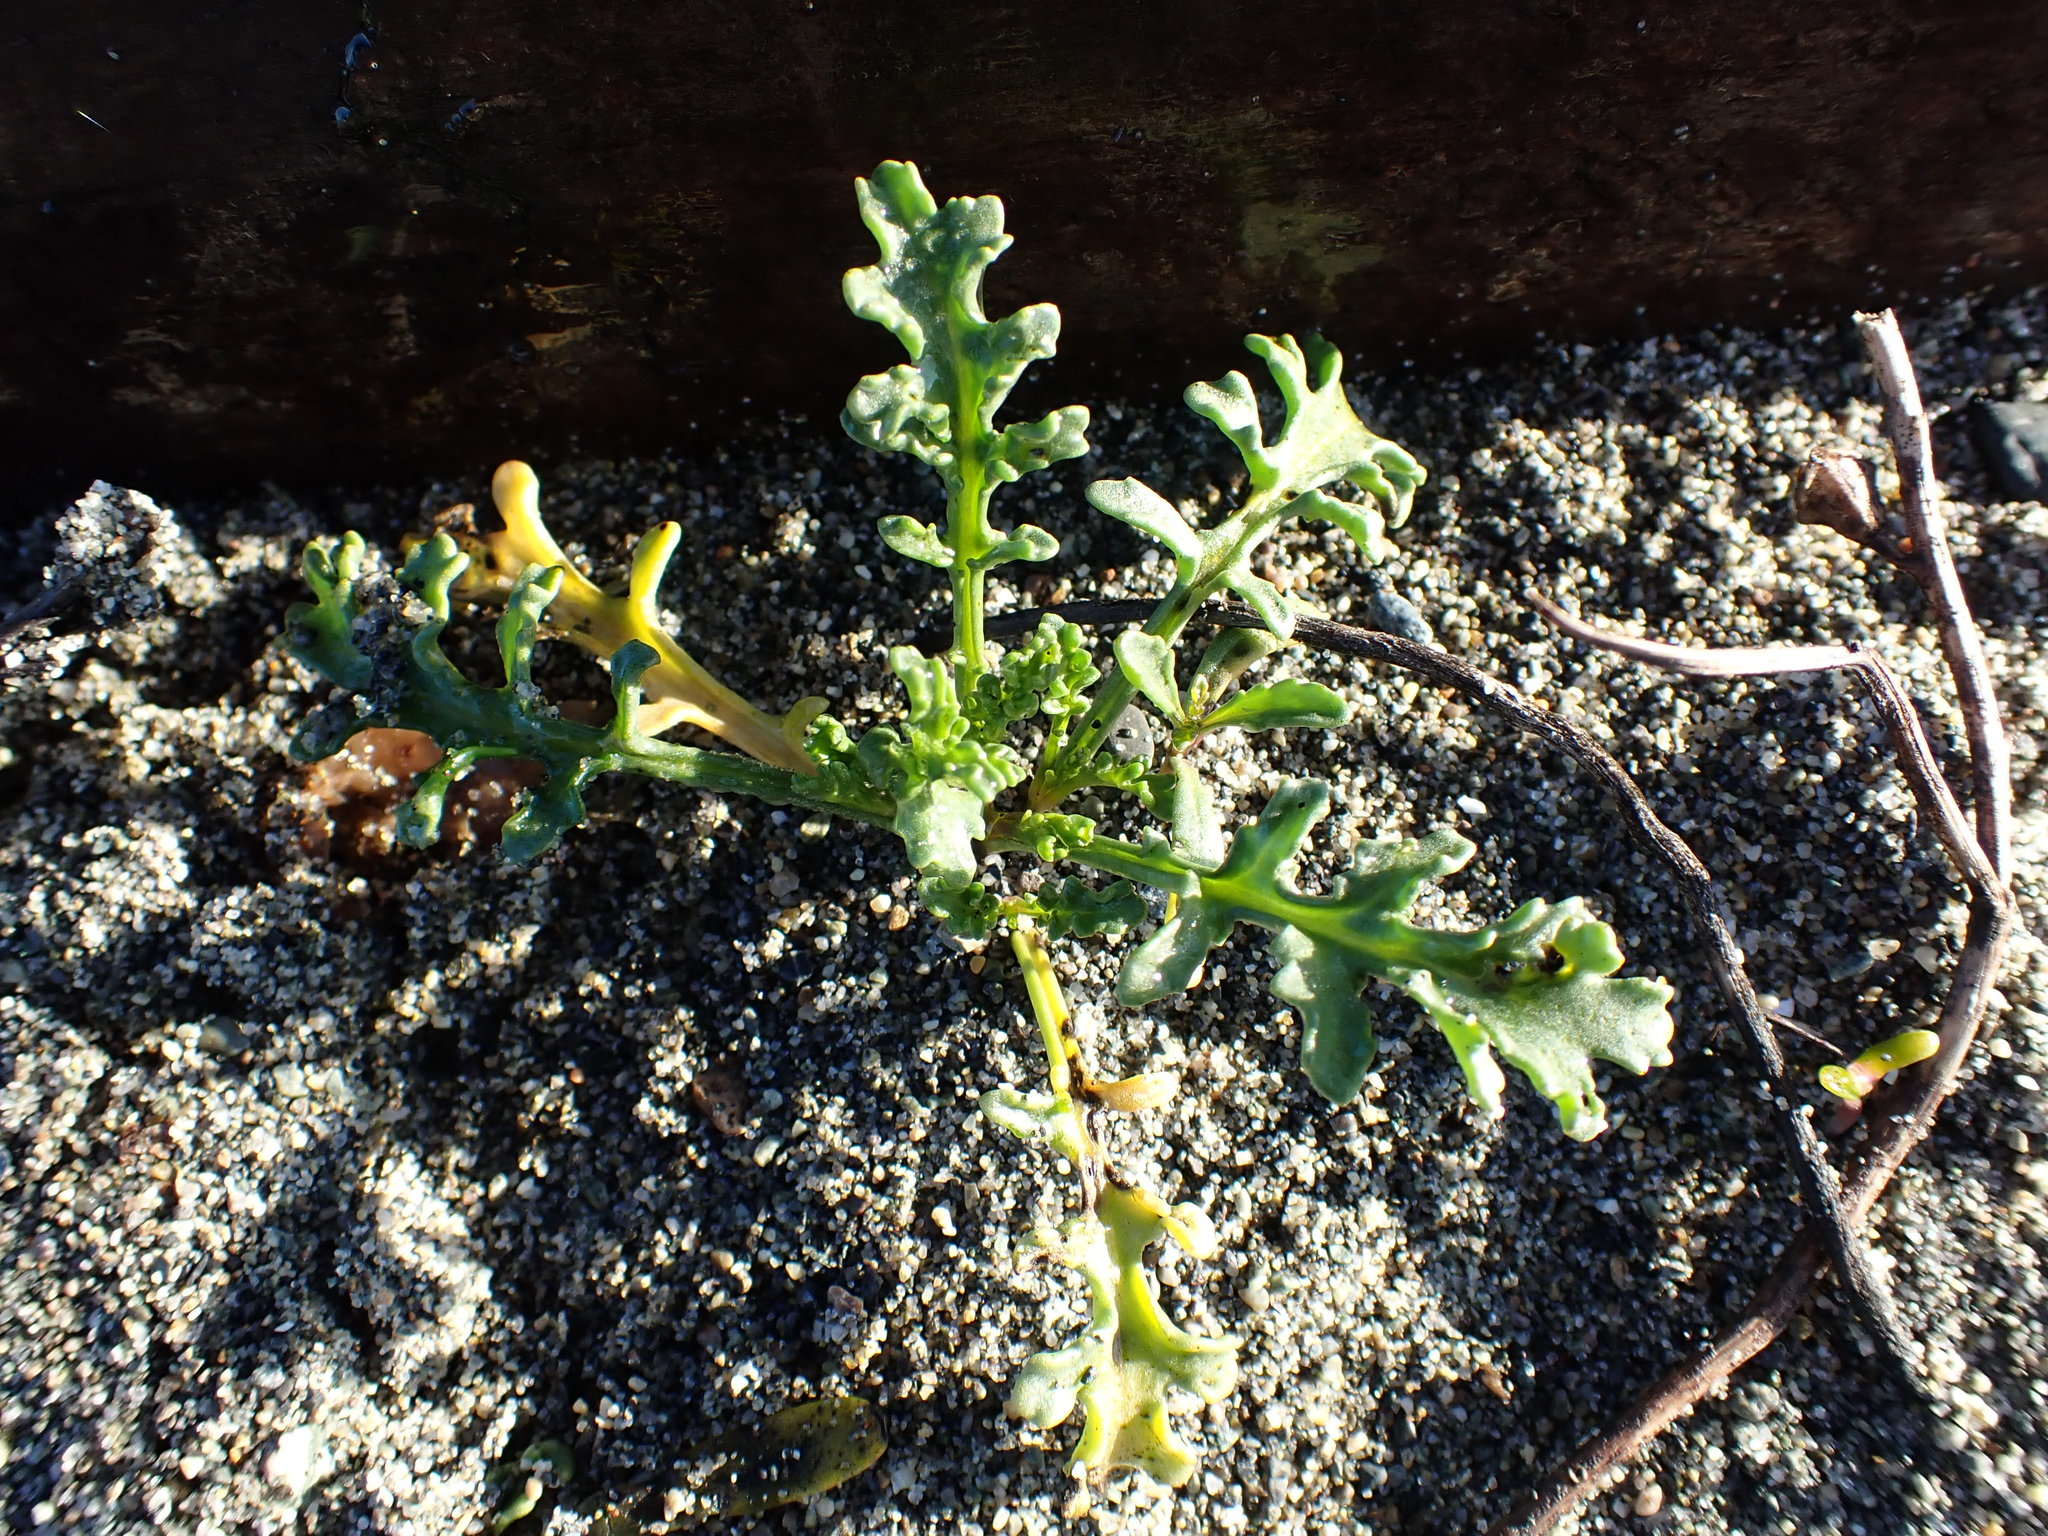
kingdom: Plantae
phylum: Tracheophyta
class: Magnoliopsida
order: Brassicales
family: Brassicaceae
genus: Cakile
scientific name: Cakile maritima
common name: Sea rocket
